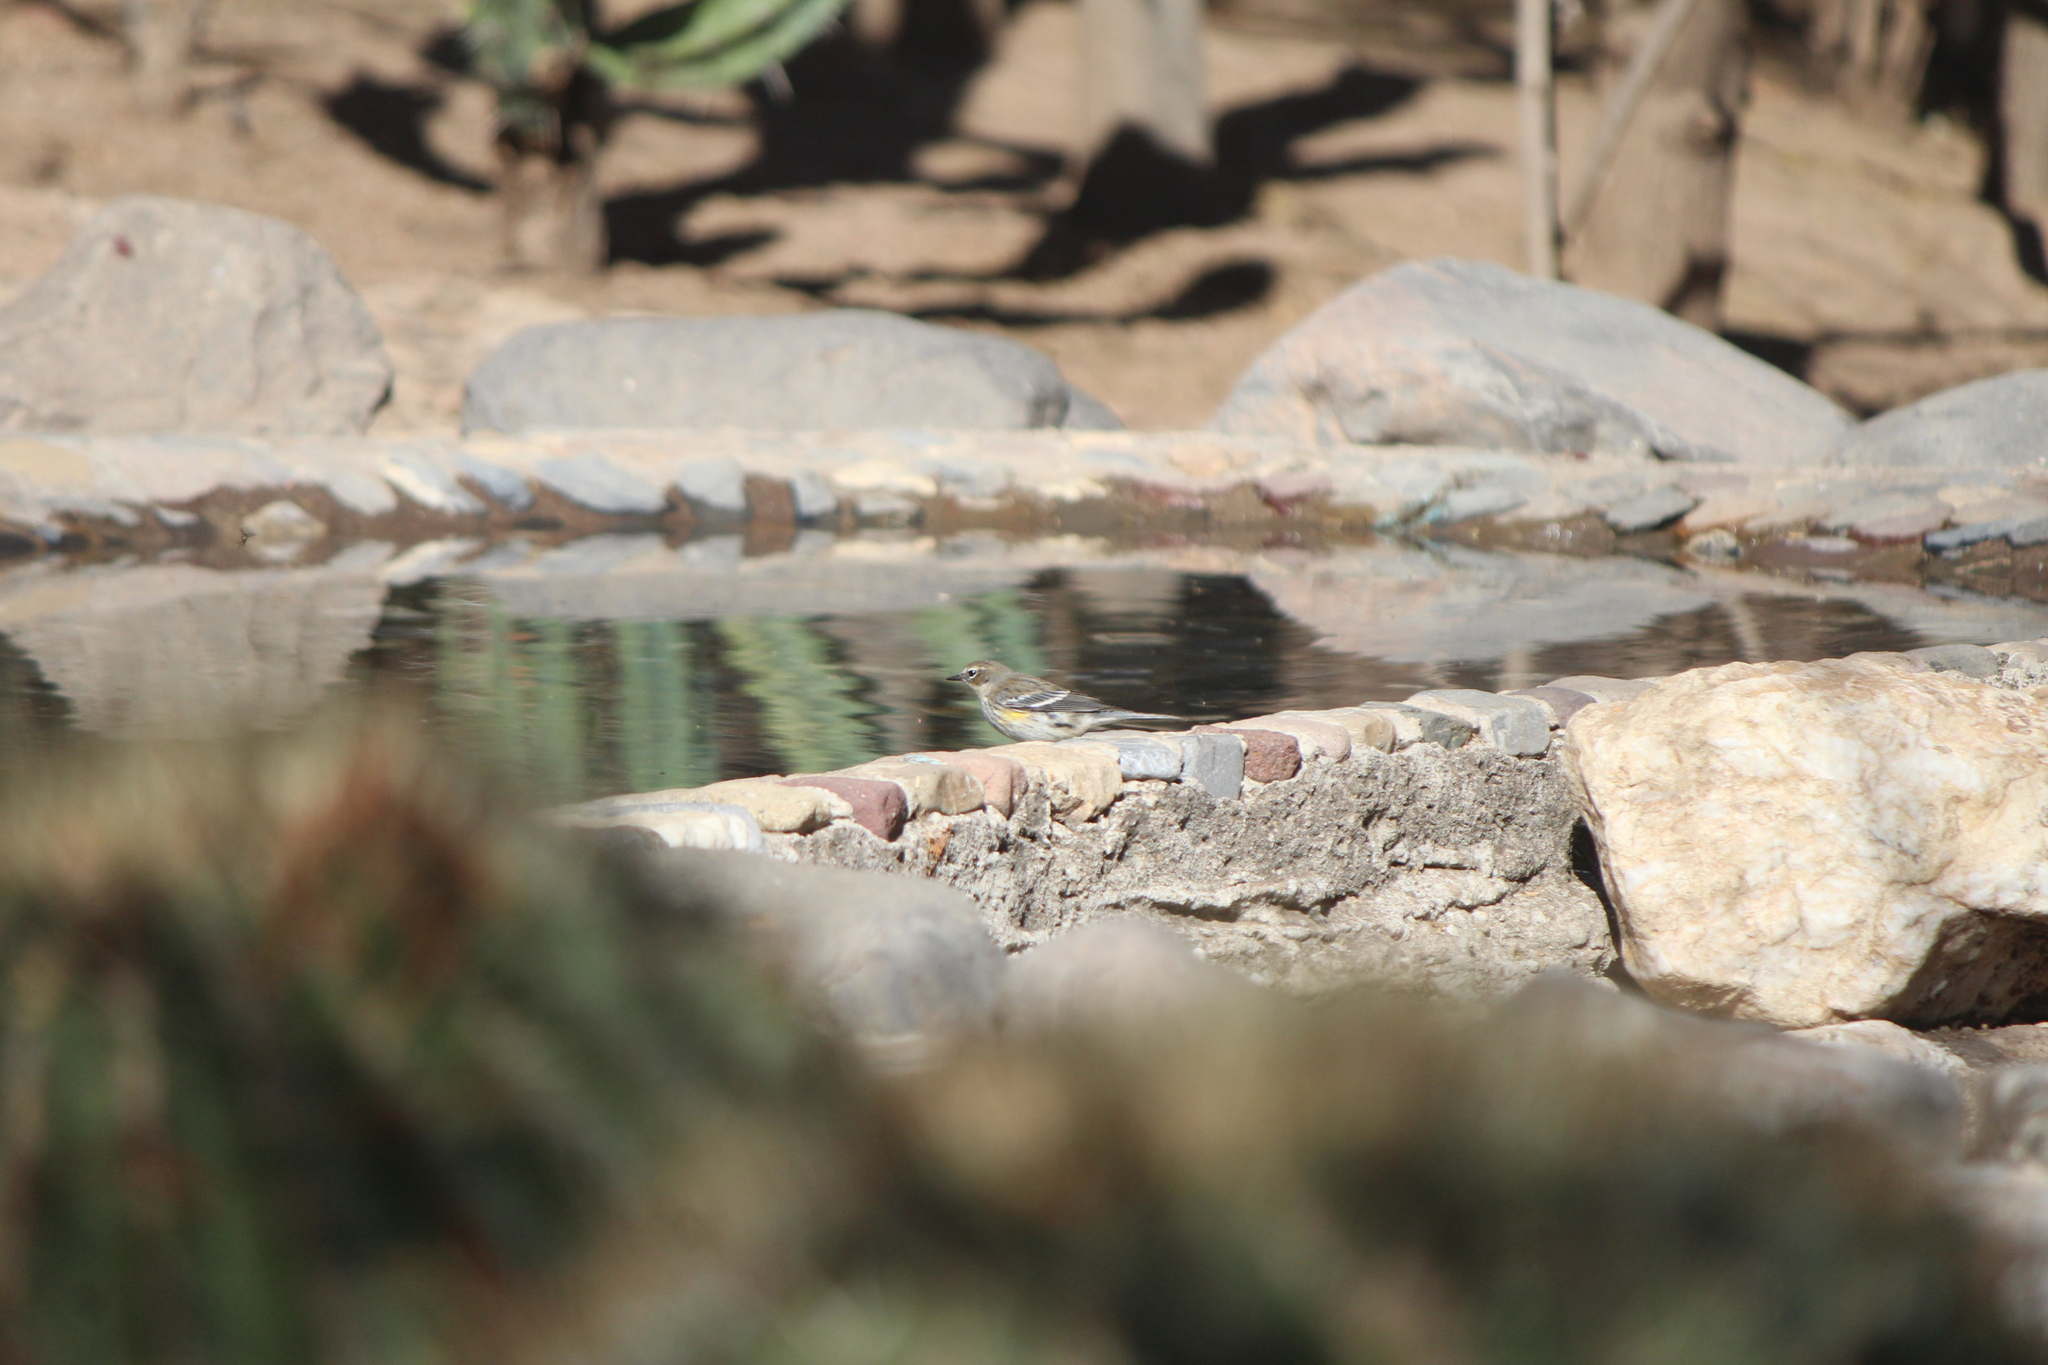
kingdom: Animalia
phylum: Chordata
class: Aves
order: Passeriformes
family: Parulidae
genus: Setophaga
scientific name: Setophaga coronata
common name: Myrtle warbler
